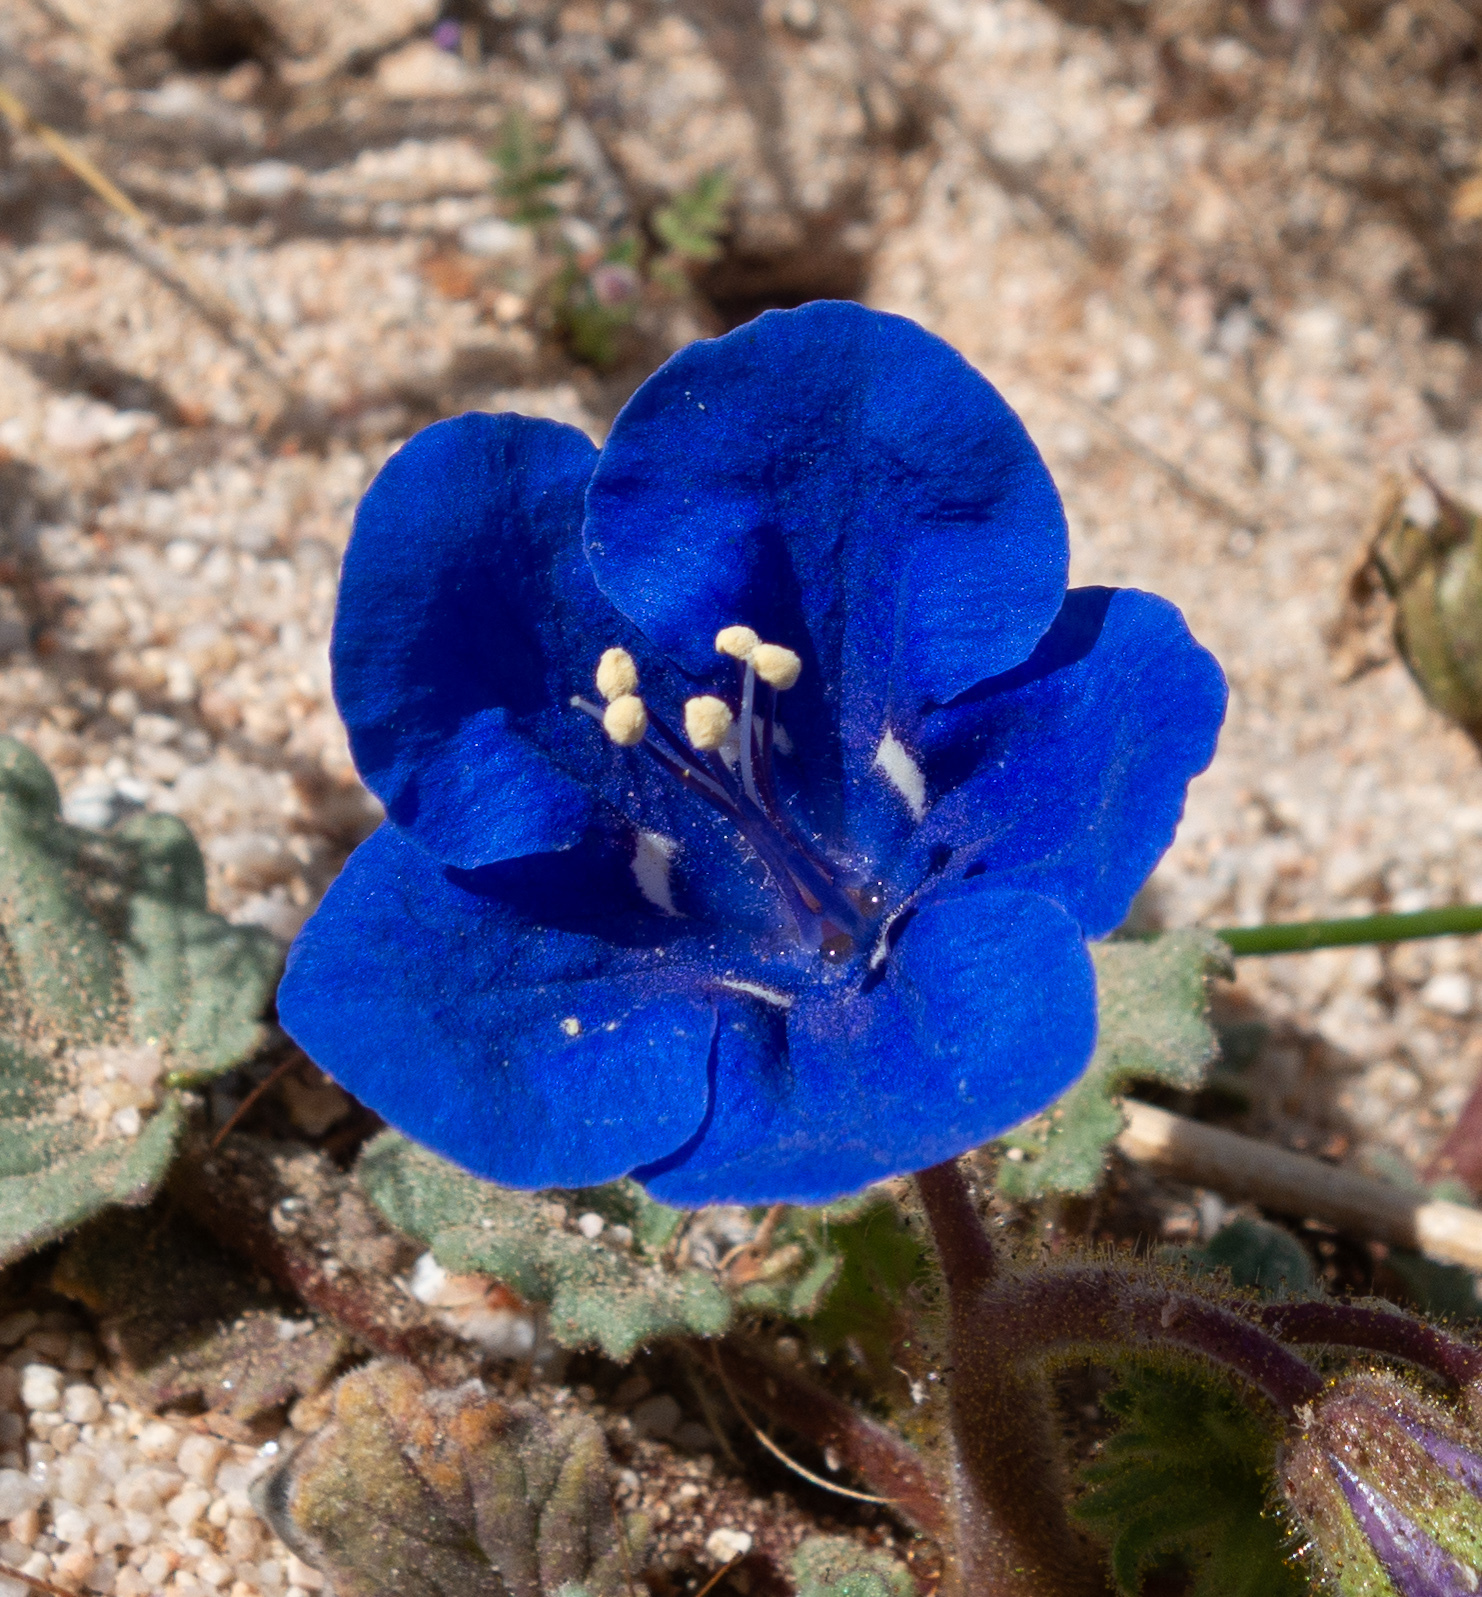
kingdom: Plantae
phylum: Tracheophyta
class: Magnoliopsida
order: Boraginales
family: Hydrophyllaceae
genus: Phacelia
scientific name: Phacelia nashiana
